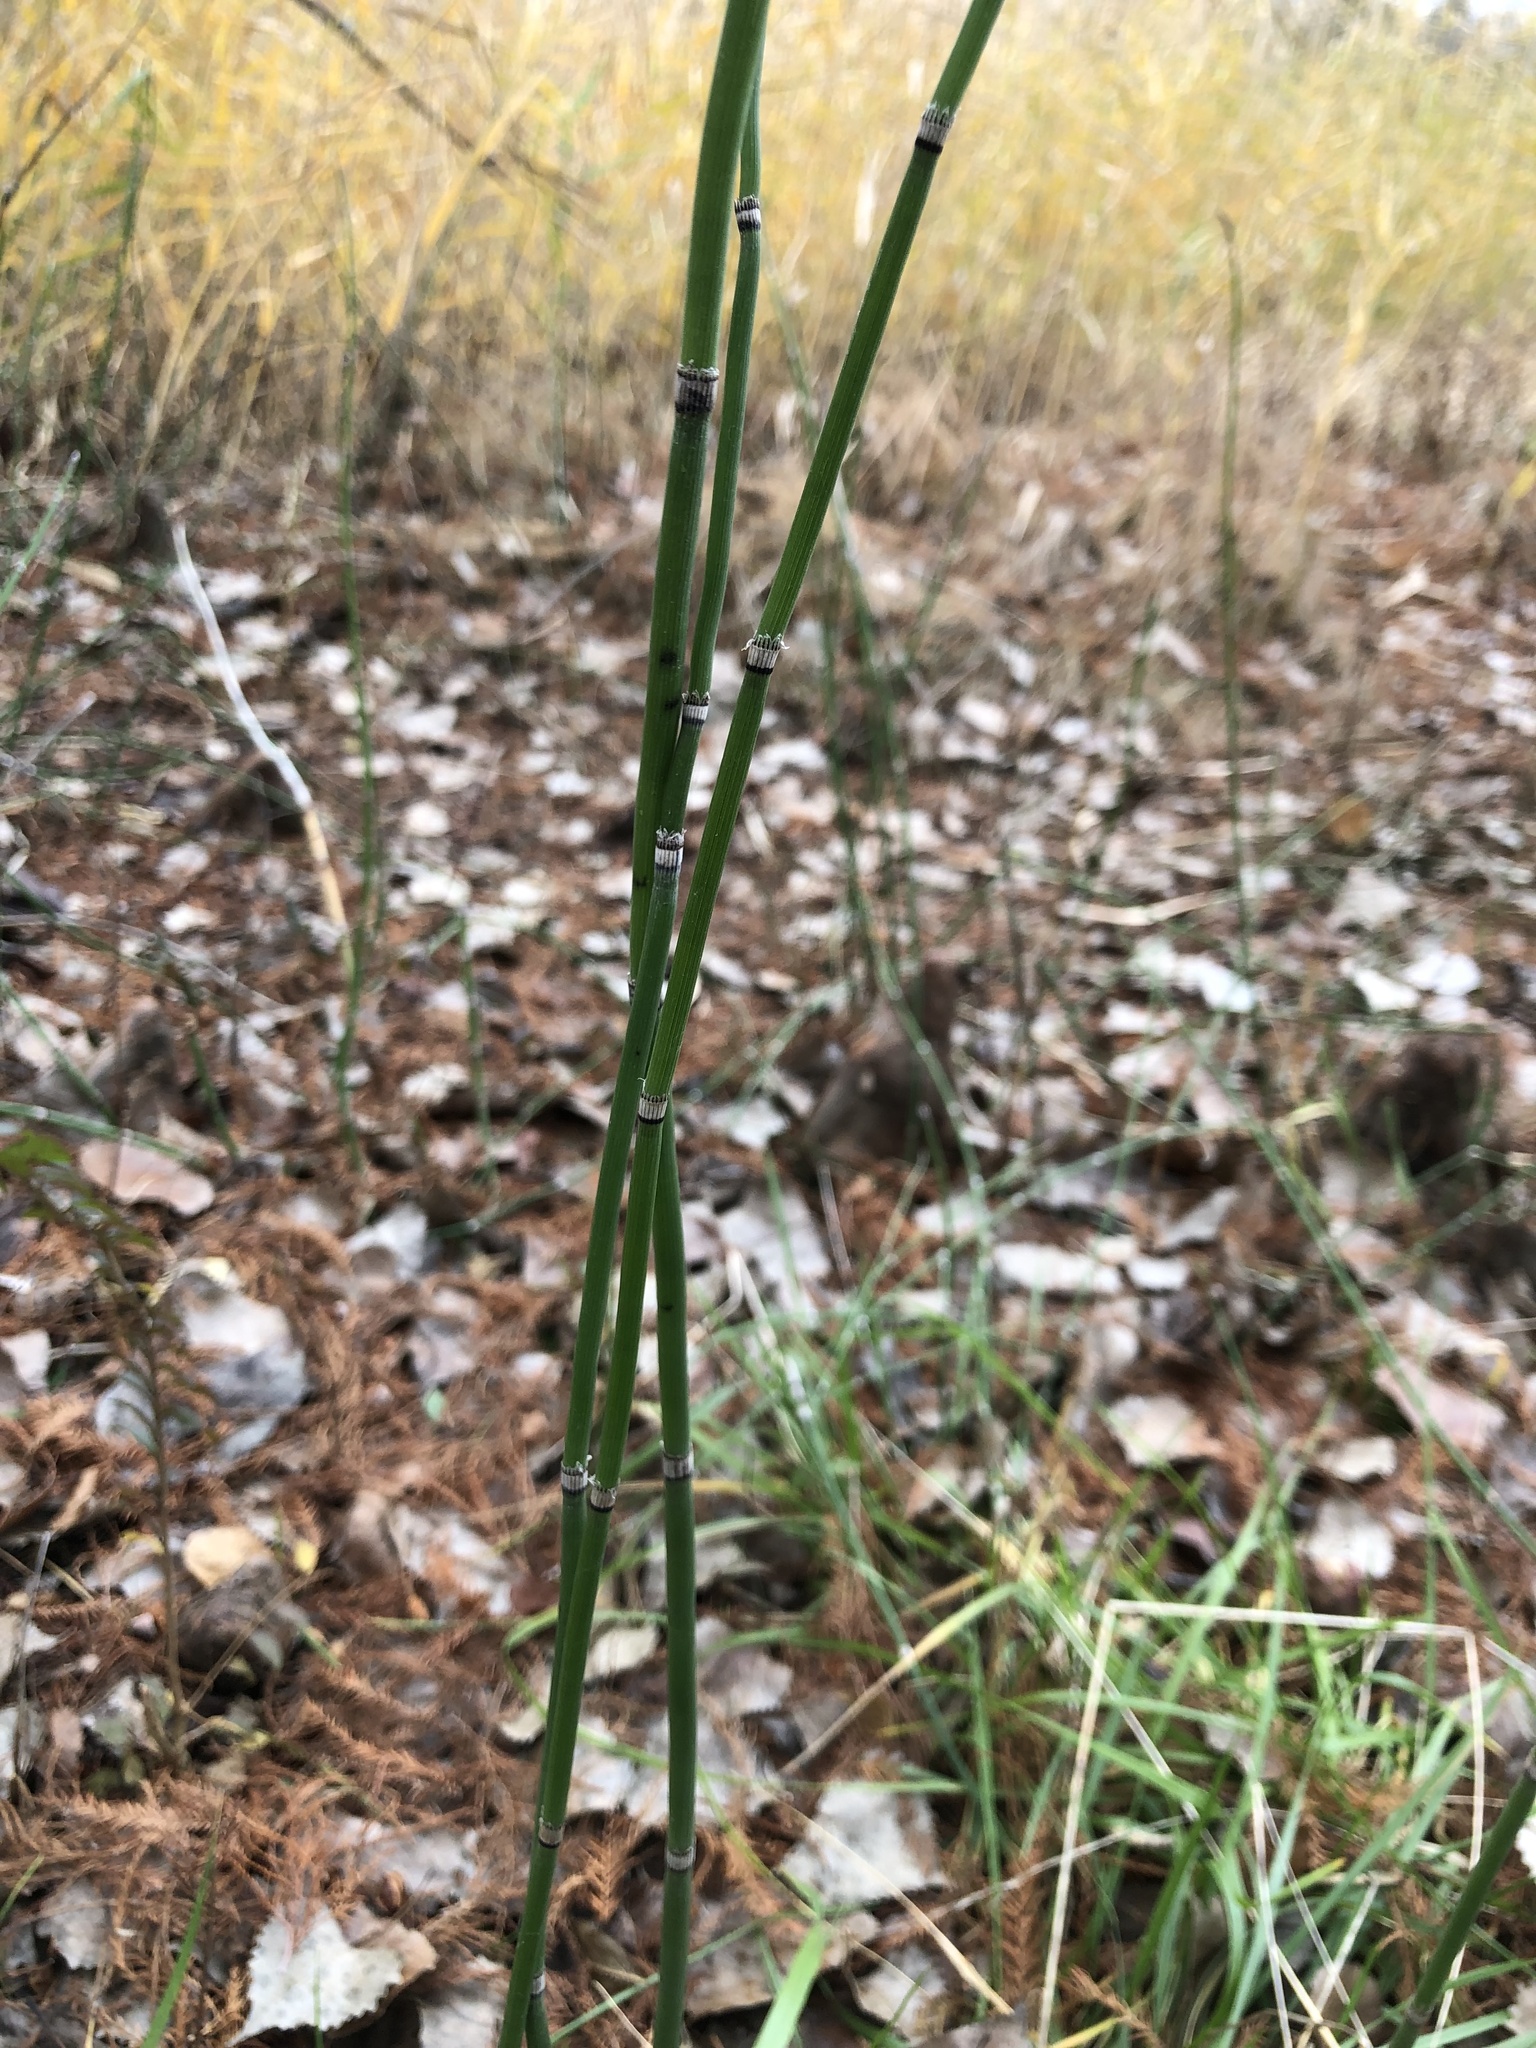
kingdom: Plantae
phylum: Tracheophyta
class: Polypodiopsida
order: Equisetales
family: Equisetaceae
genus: Equisetum
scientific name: Equisetum praealtum
